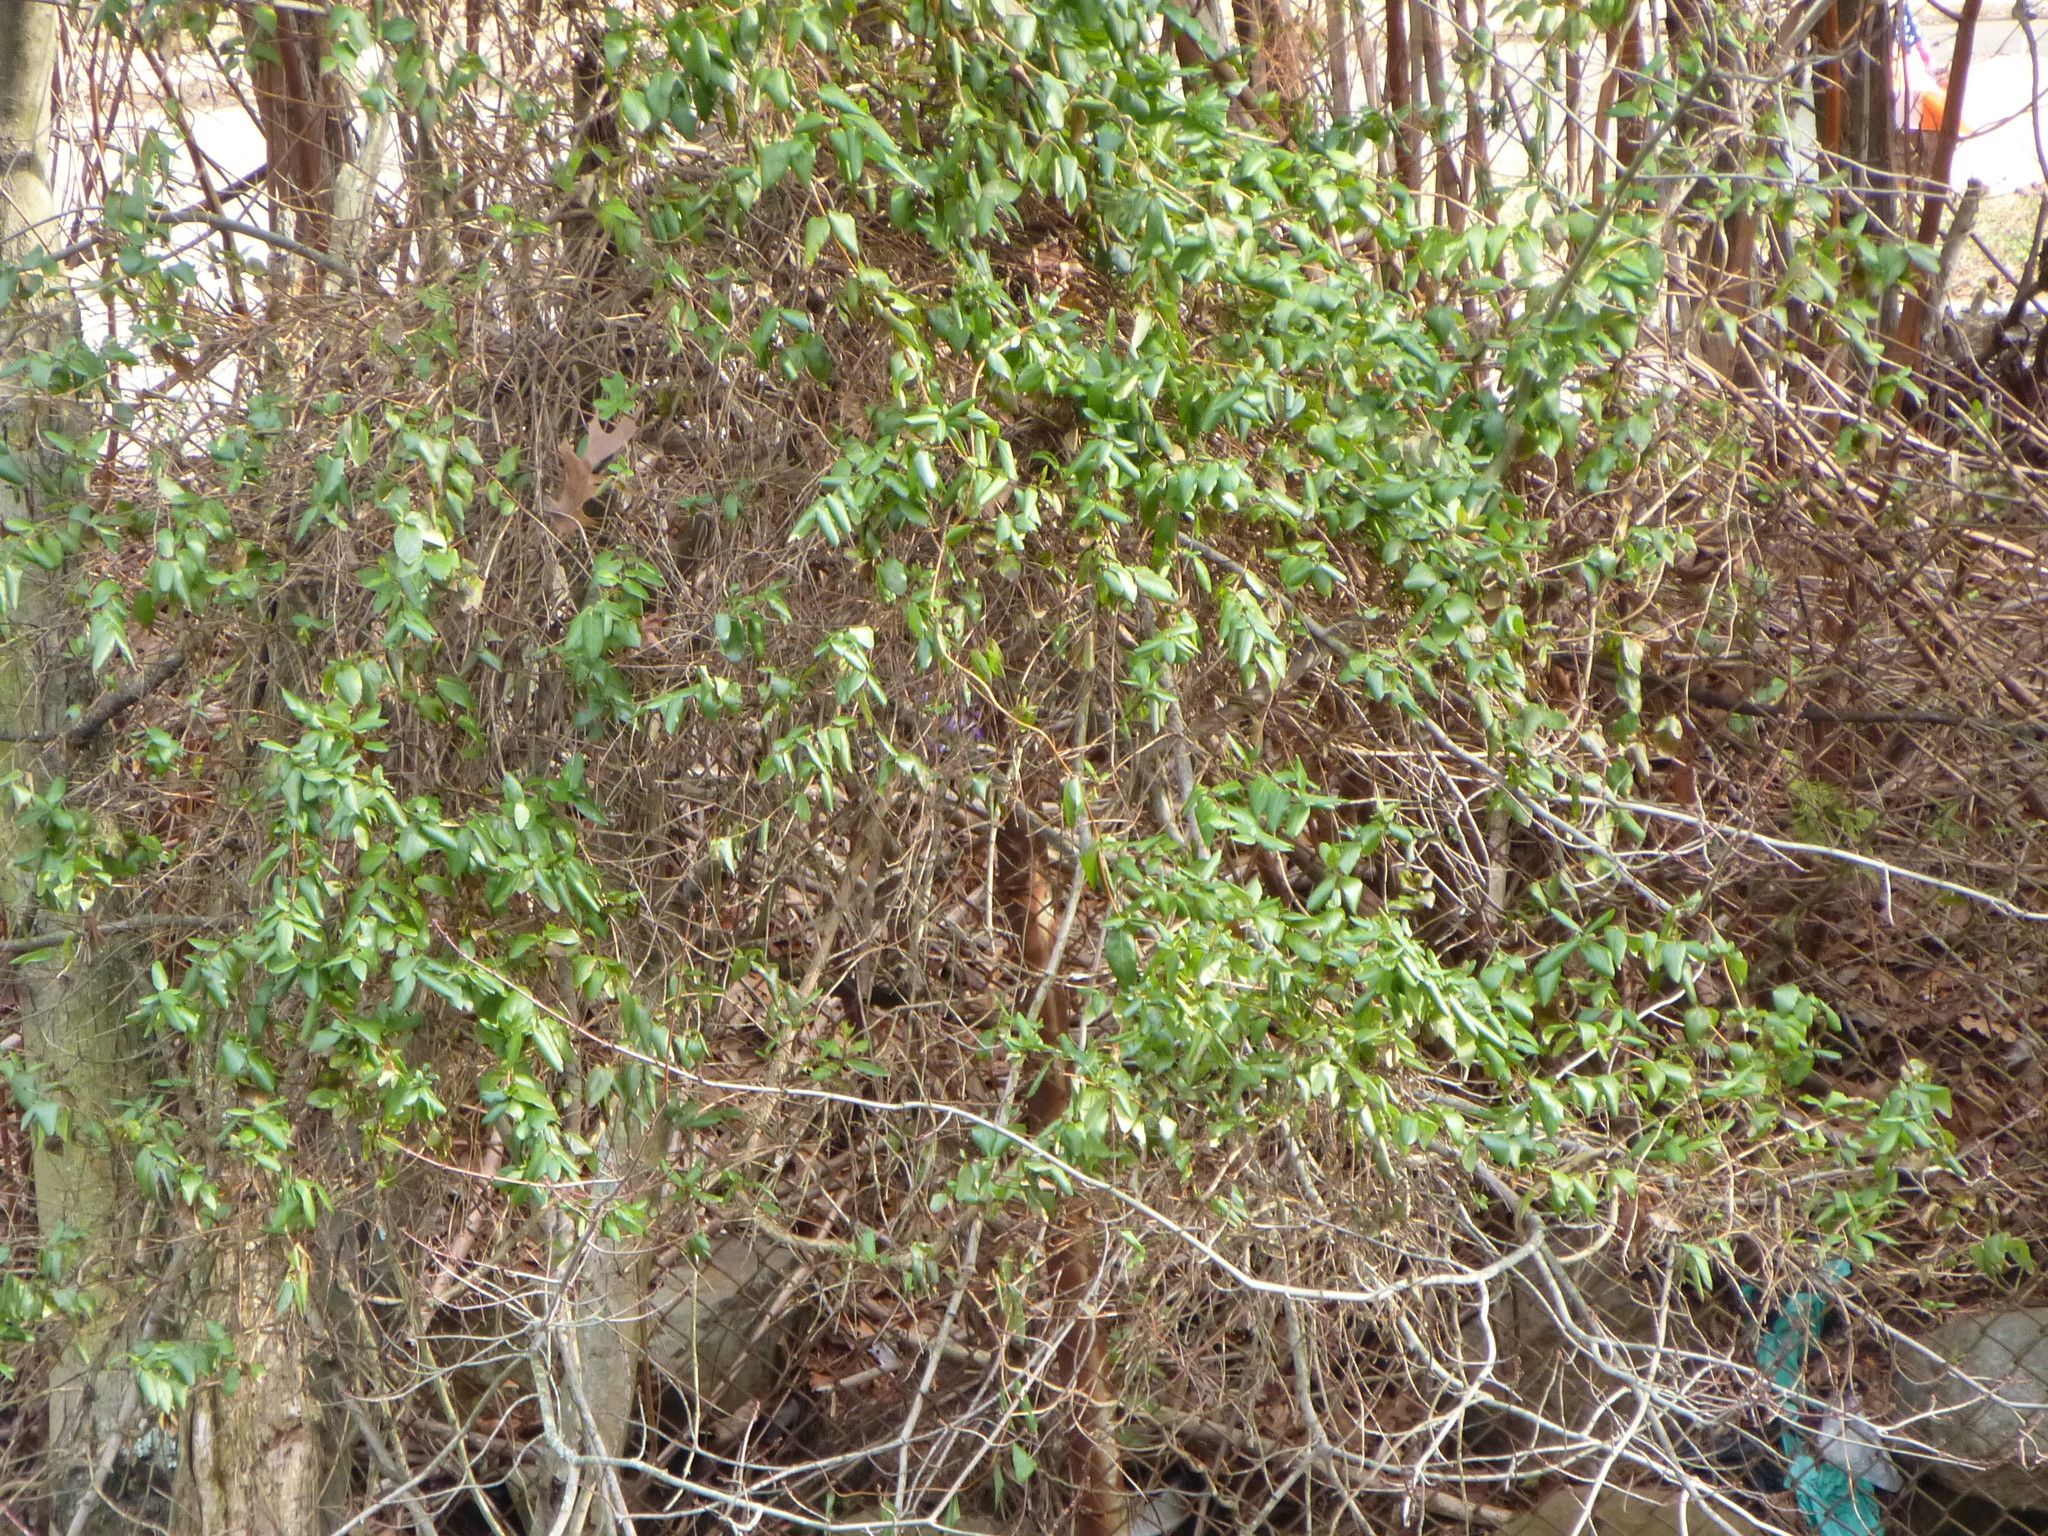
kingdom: Plantae
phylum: Tracheophyta
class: Magnoliopsida
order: Dipsacales
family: Caprifoliaceae
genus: Lonicera
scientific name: Lonicera japonica
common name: Japanese honeysuckle
